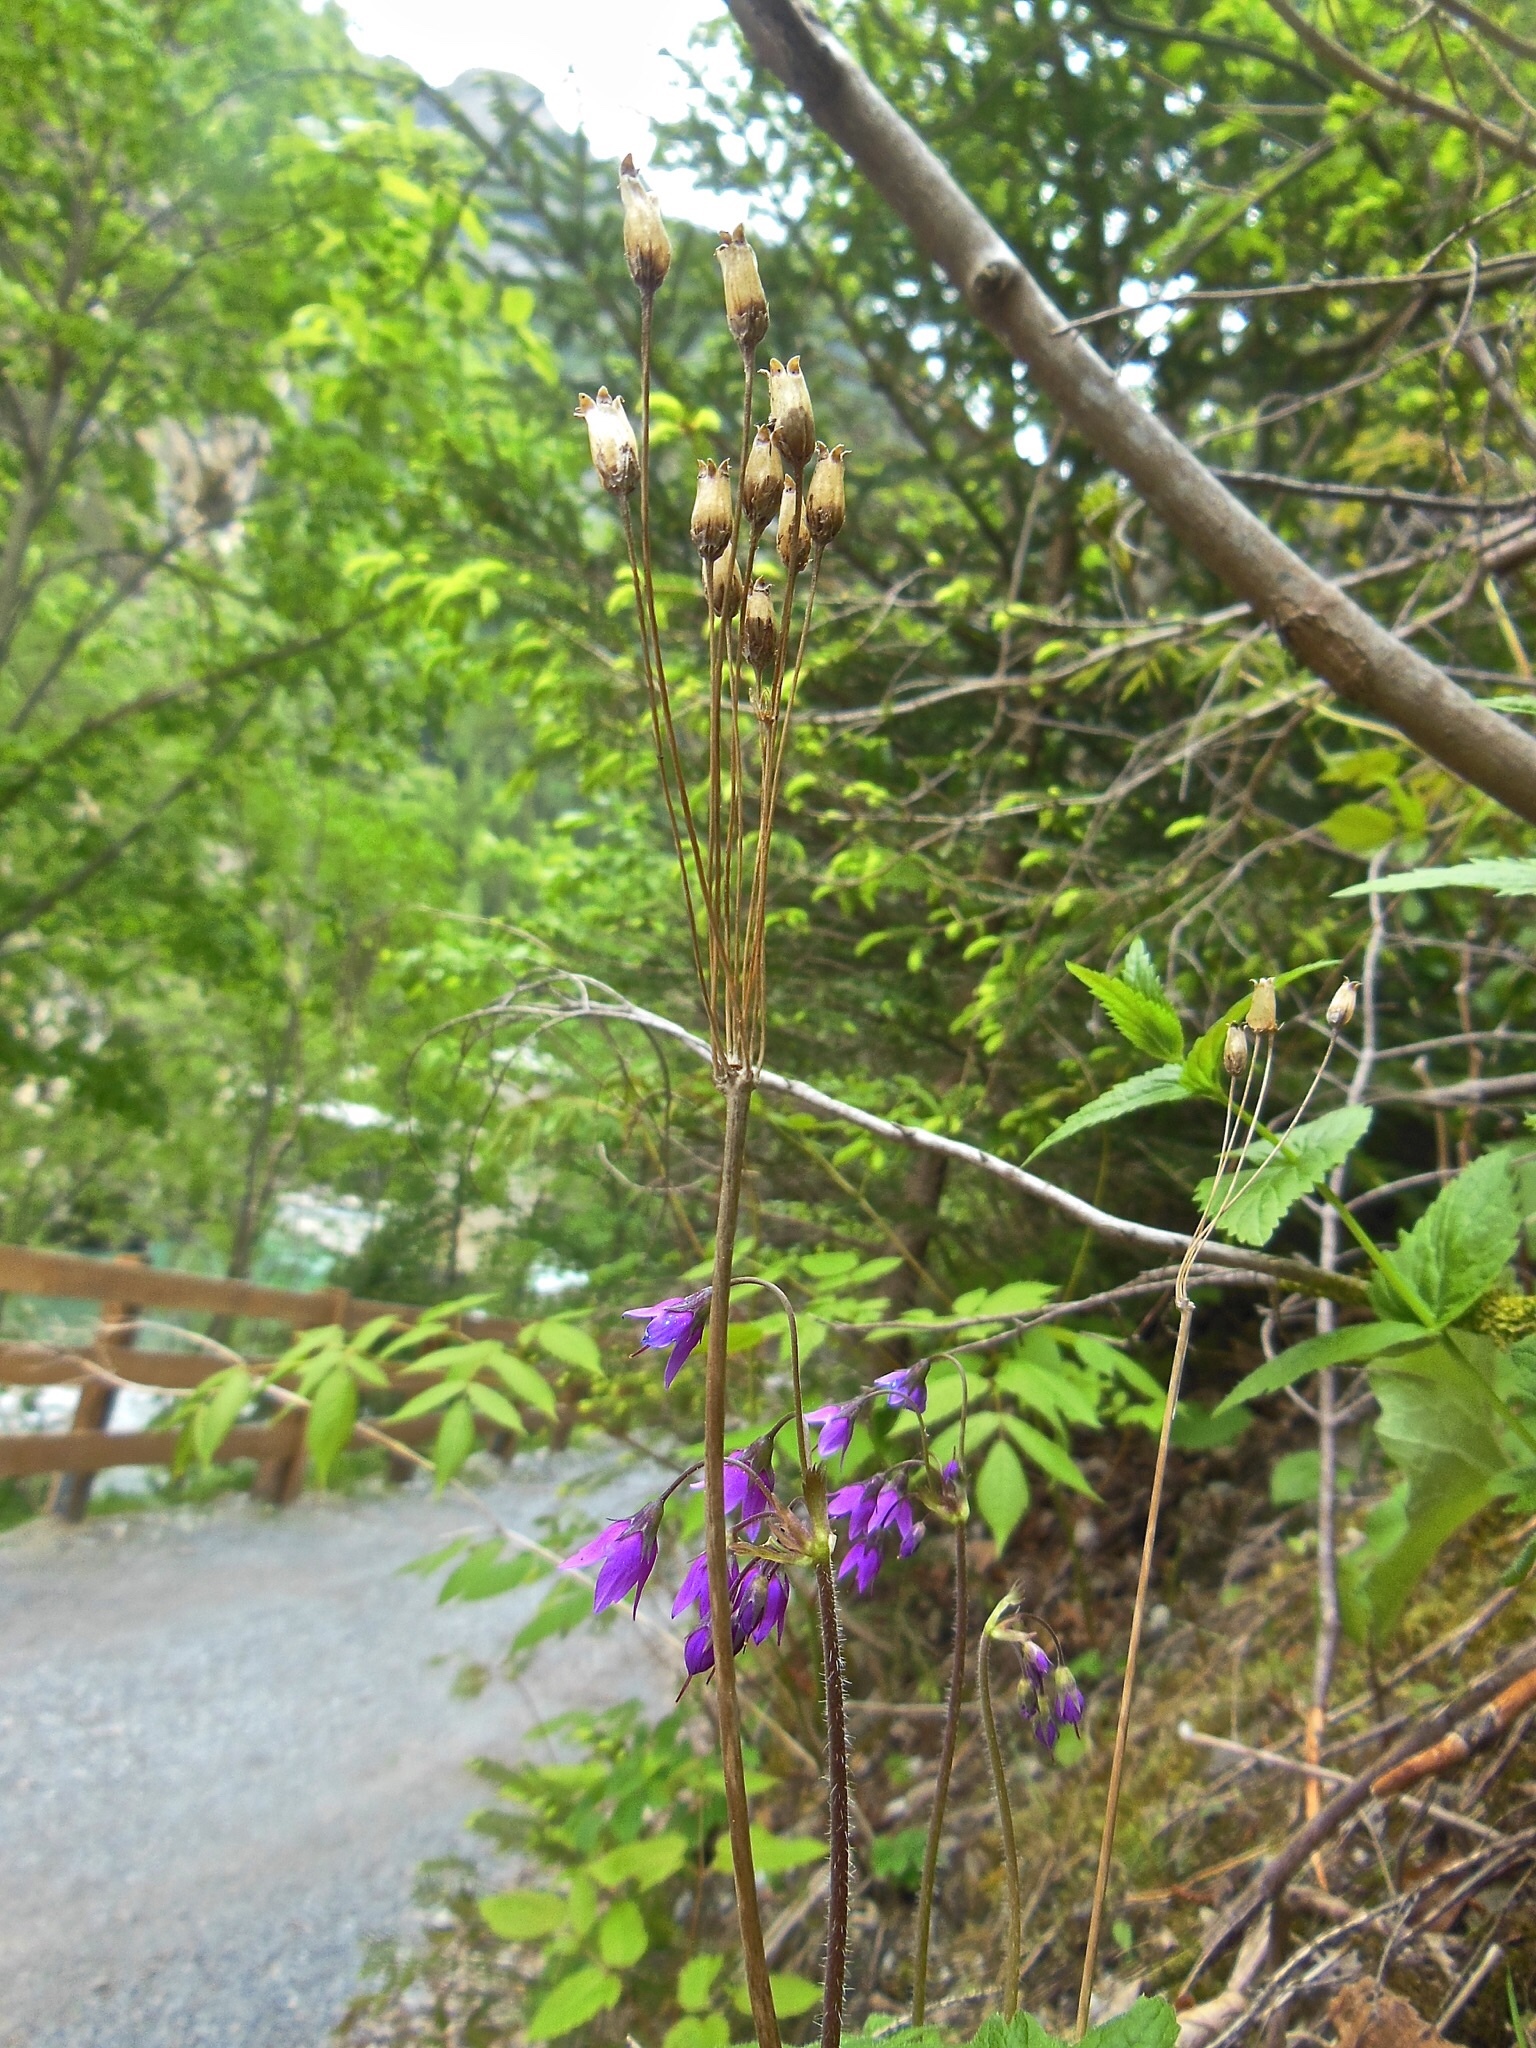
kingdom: Plantae
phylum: Tracheophyta
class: Magnoliopsida
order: Ericales
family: Primulaceae
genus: Primula
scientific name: Primula matthioli
